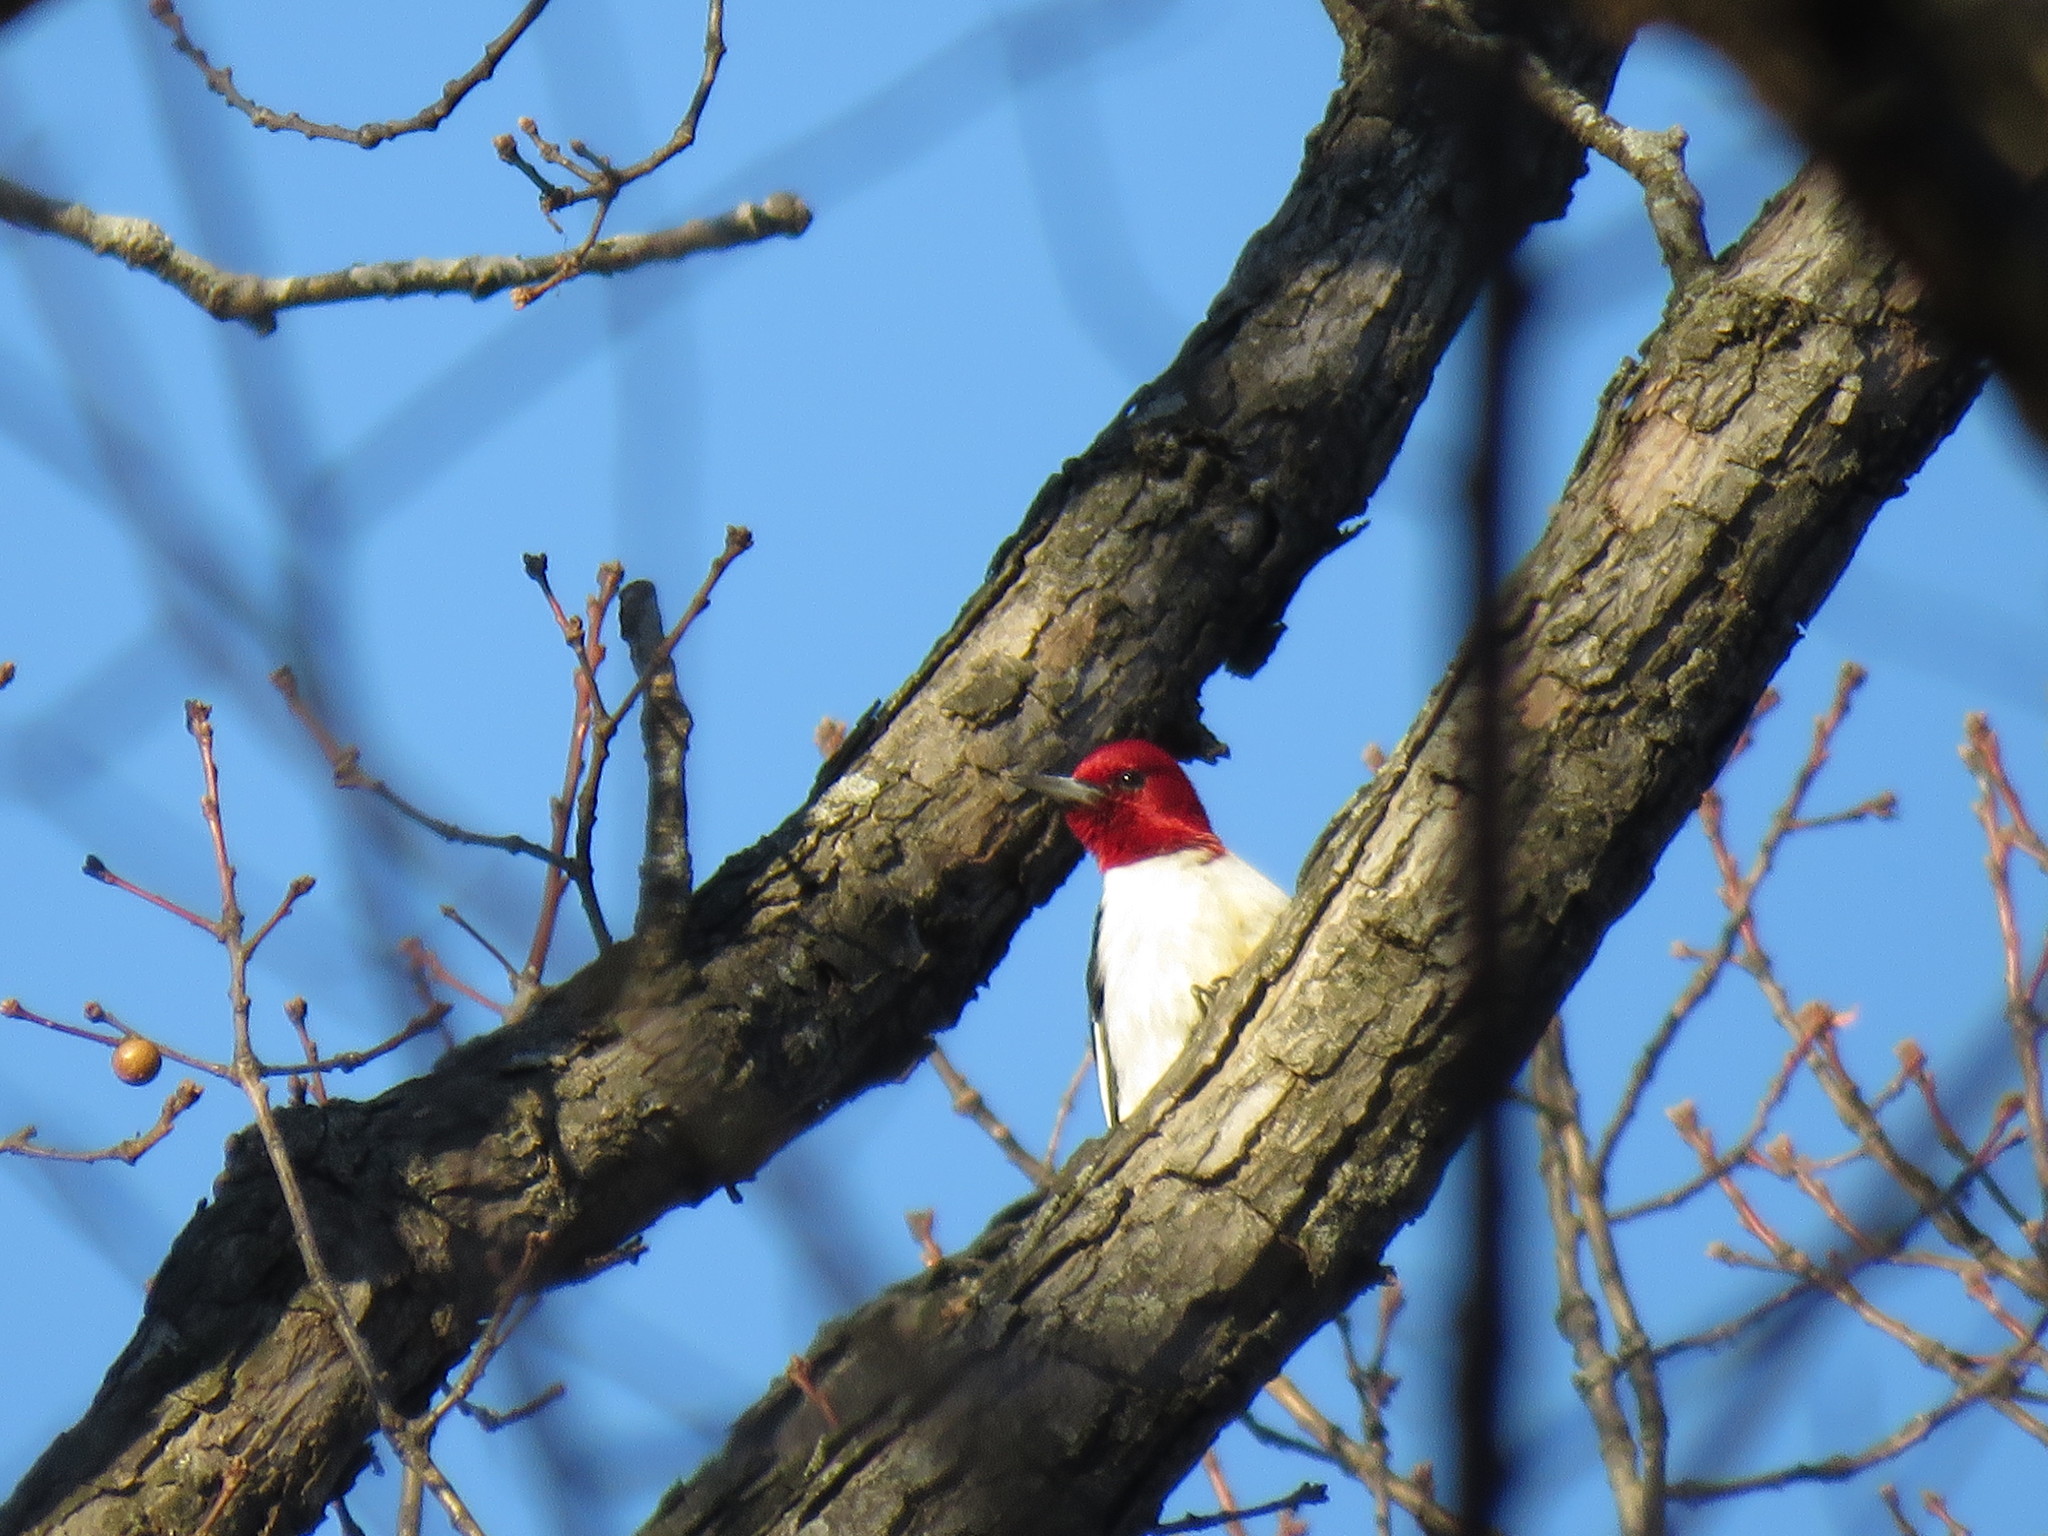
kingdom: Animalia
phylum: Chordata
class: Aves
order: Piciformes
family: Picidae
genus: Melanerpes
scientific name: Melanerpes erythrocephalus
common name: Red-headed woodpecker
